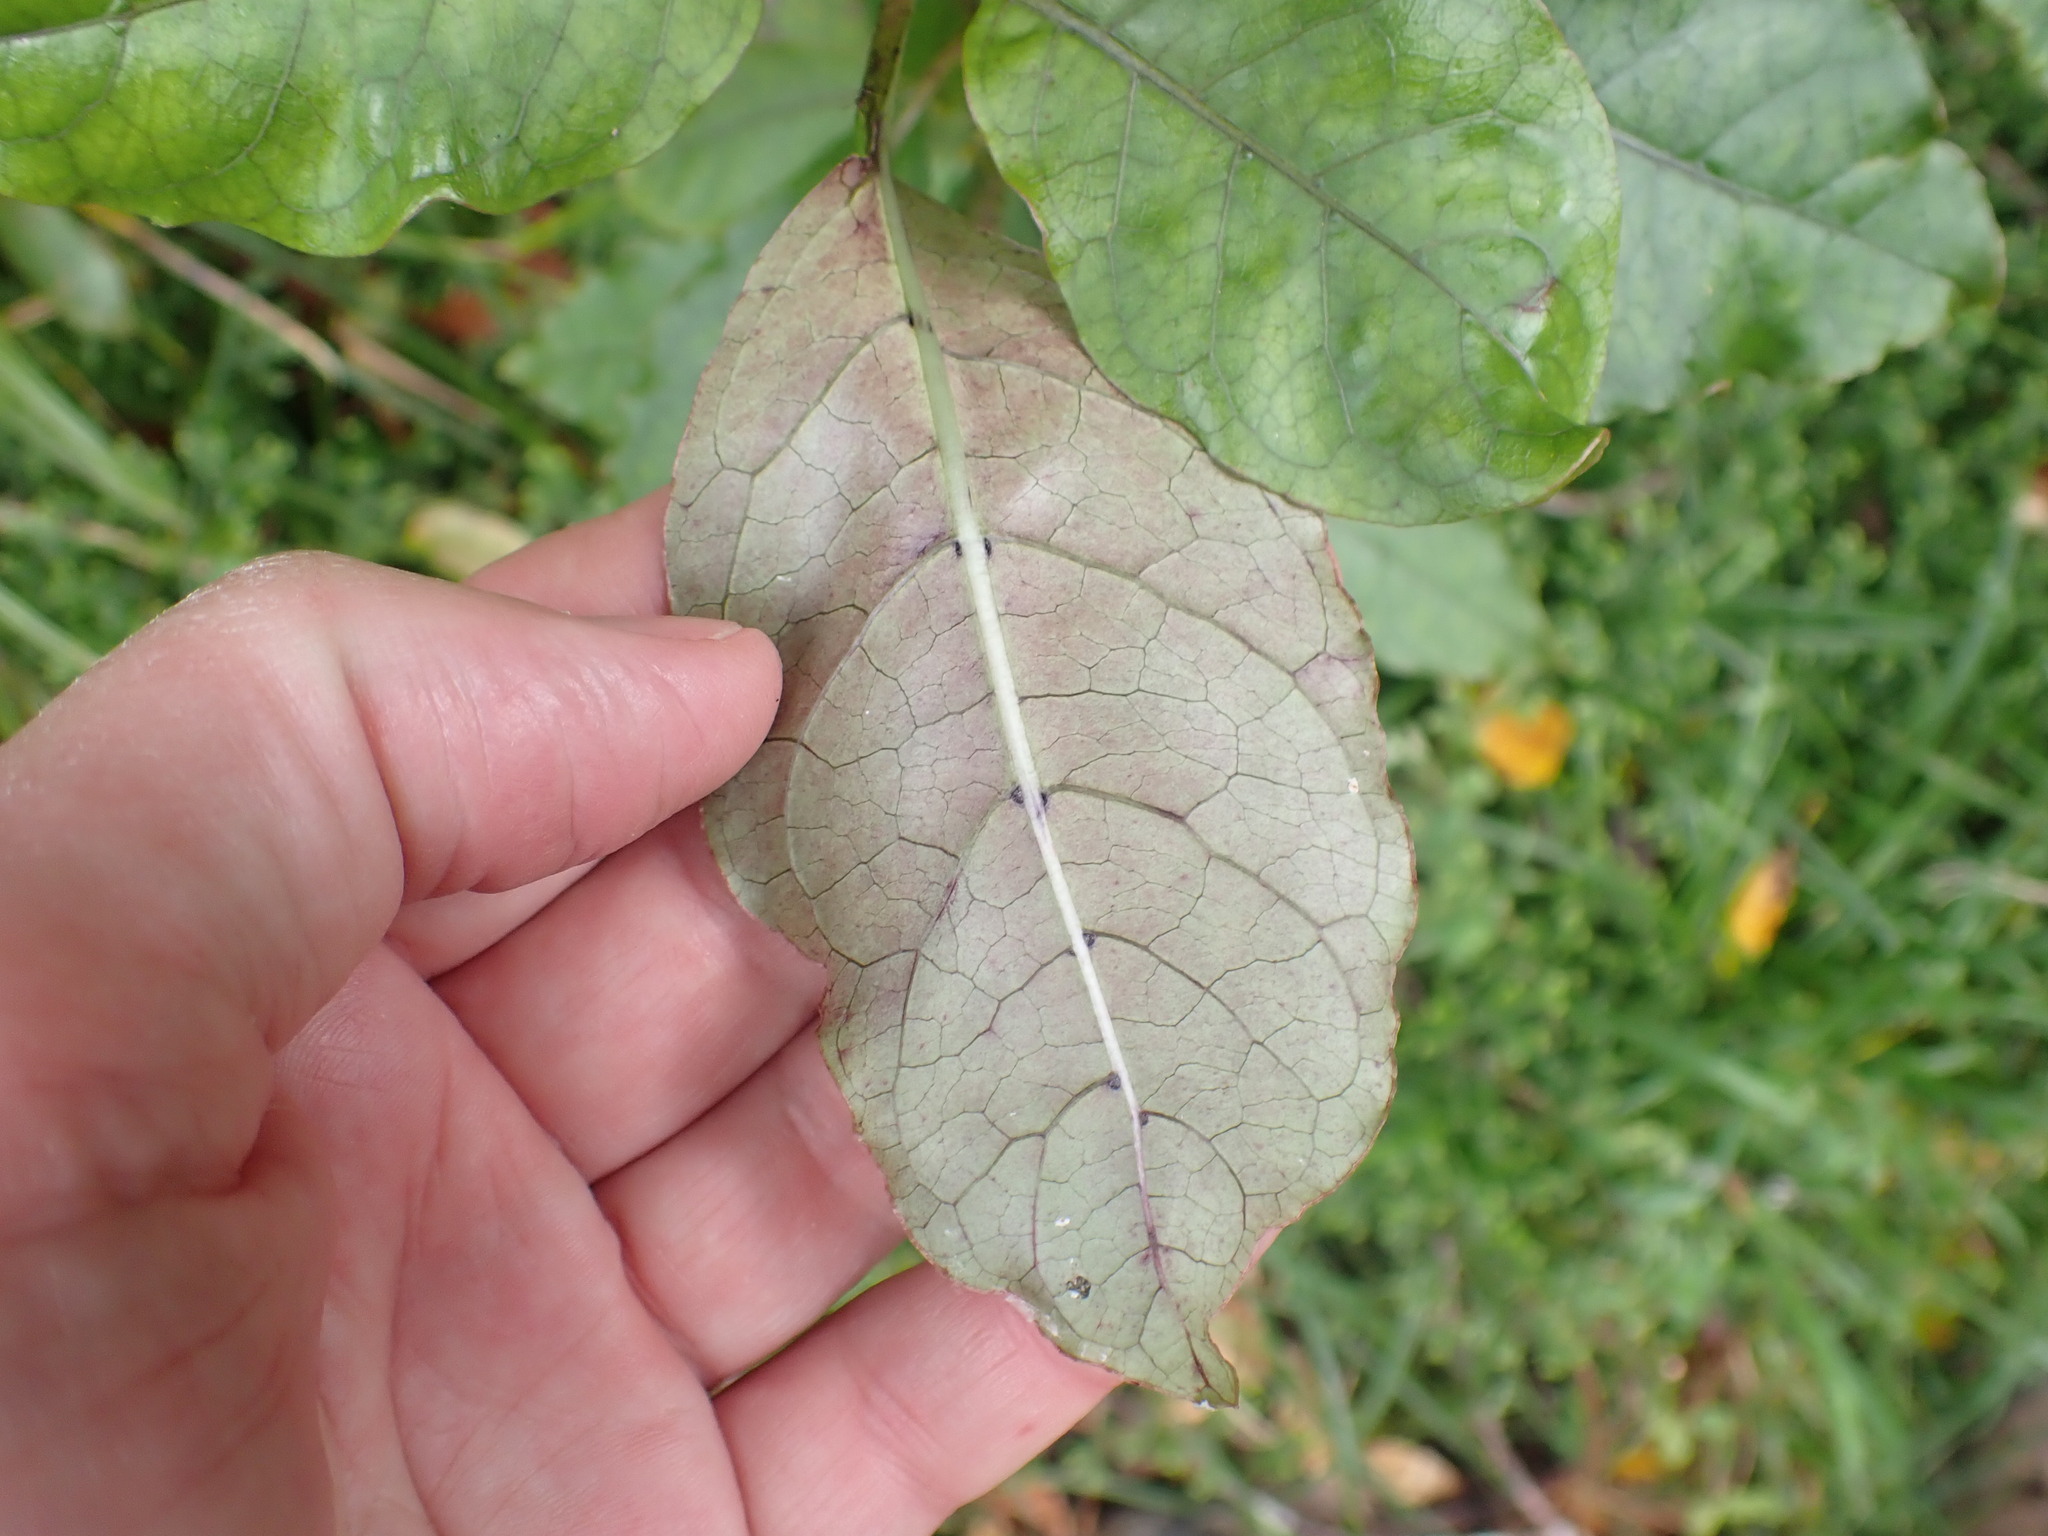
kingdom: Plantae
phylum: Tracheophyta
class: Magnoliopsida
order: Gentianales
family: Rubiaceae
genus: Coprosma
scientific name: Coprosma autumnalis
